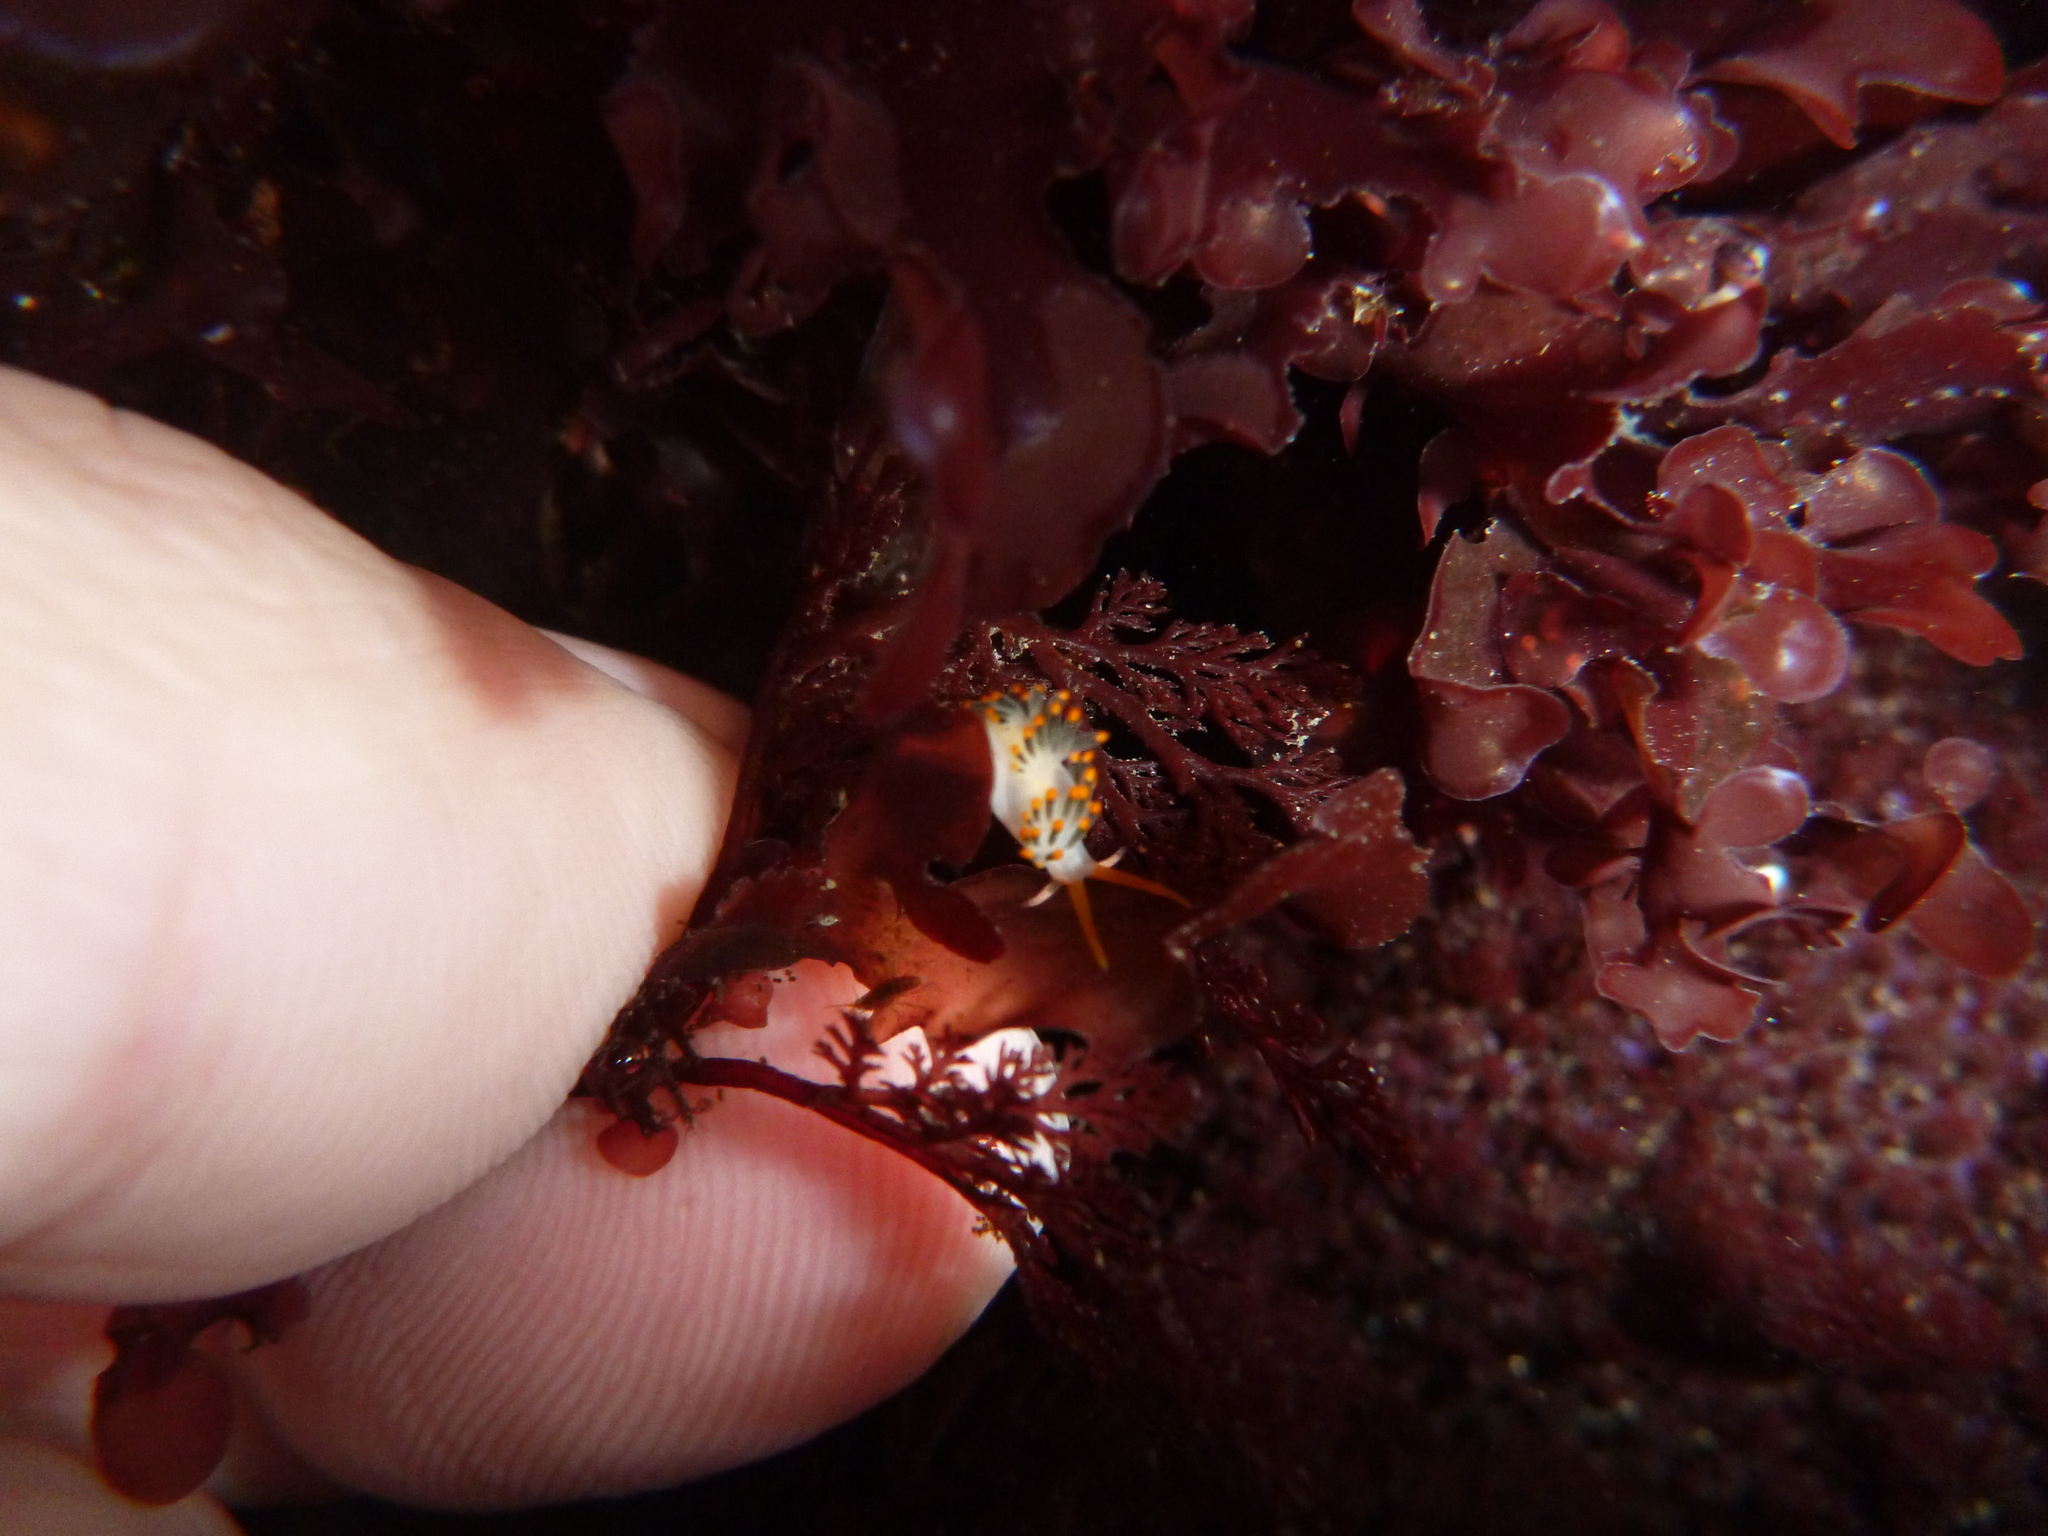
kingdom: Animalia
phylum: Mollusca
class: Gastropoda
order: Nudibranchia
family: Trinchesiidae
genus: Diaphoreolis
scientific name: Diaphoreolis lagunae
